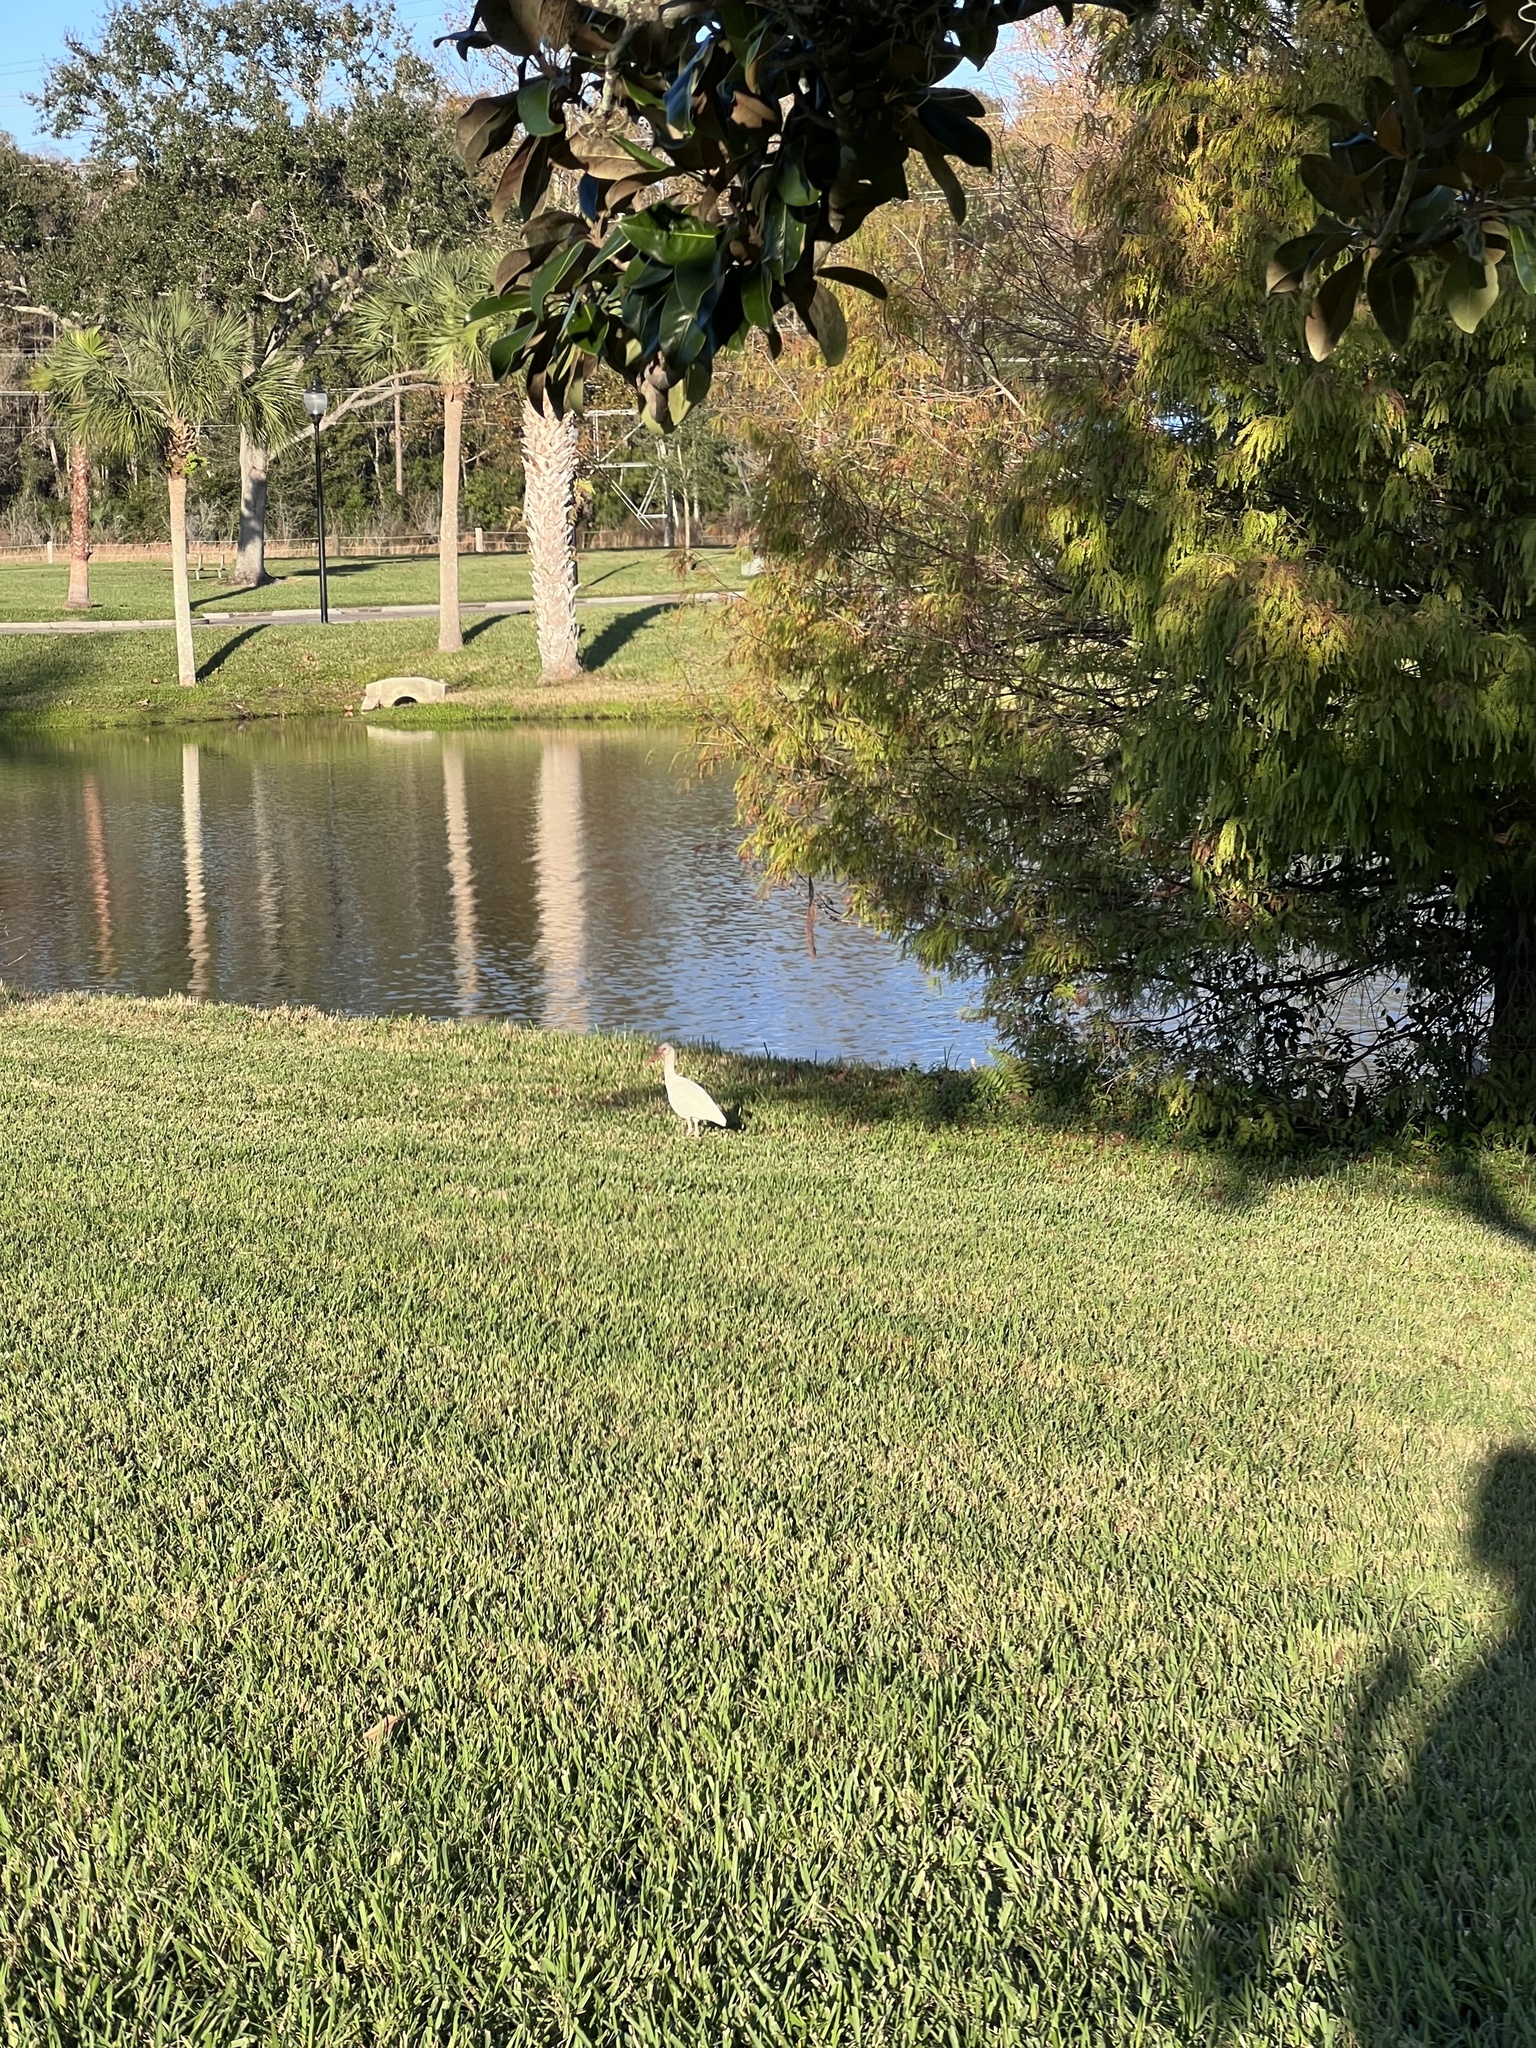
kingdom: Animalia
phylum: Chordata
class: Aves
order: Pelecaniformes
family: Threskiornithidae
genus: Eudocimus
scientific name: Eudocimus albus
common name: White ibis
